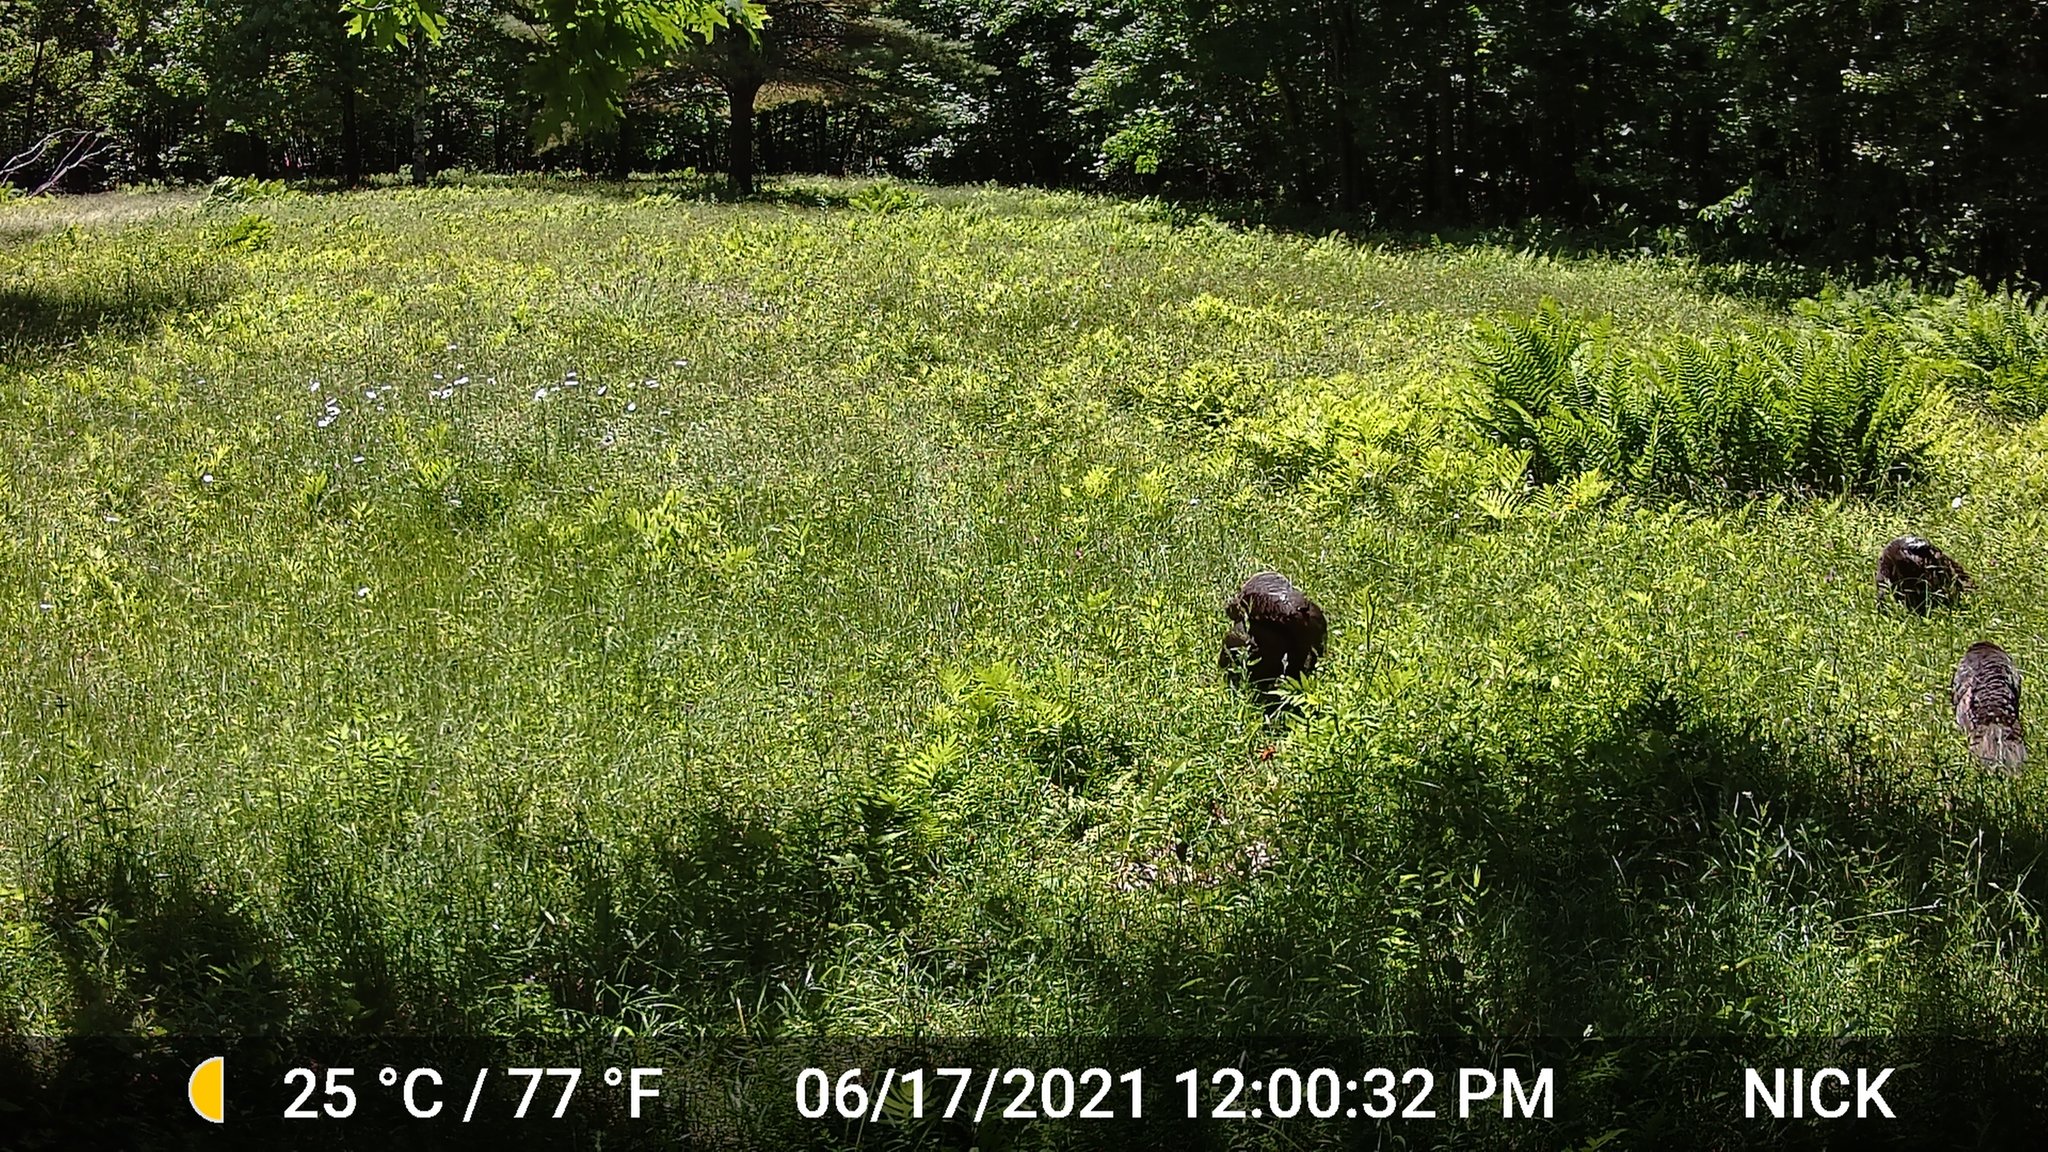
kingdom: Animalia
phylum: Chordata
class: Aves
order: Galliformes
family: Phasianidae
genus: Meleagris
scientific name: Meleagris gallopavo
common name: Wild turkey
